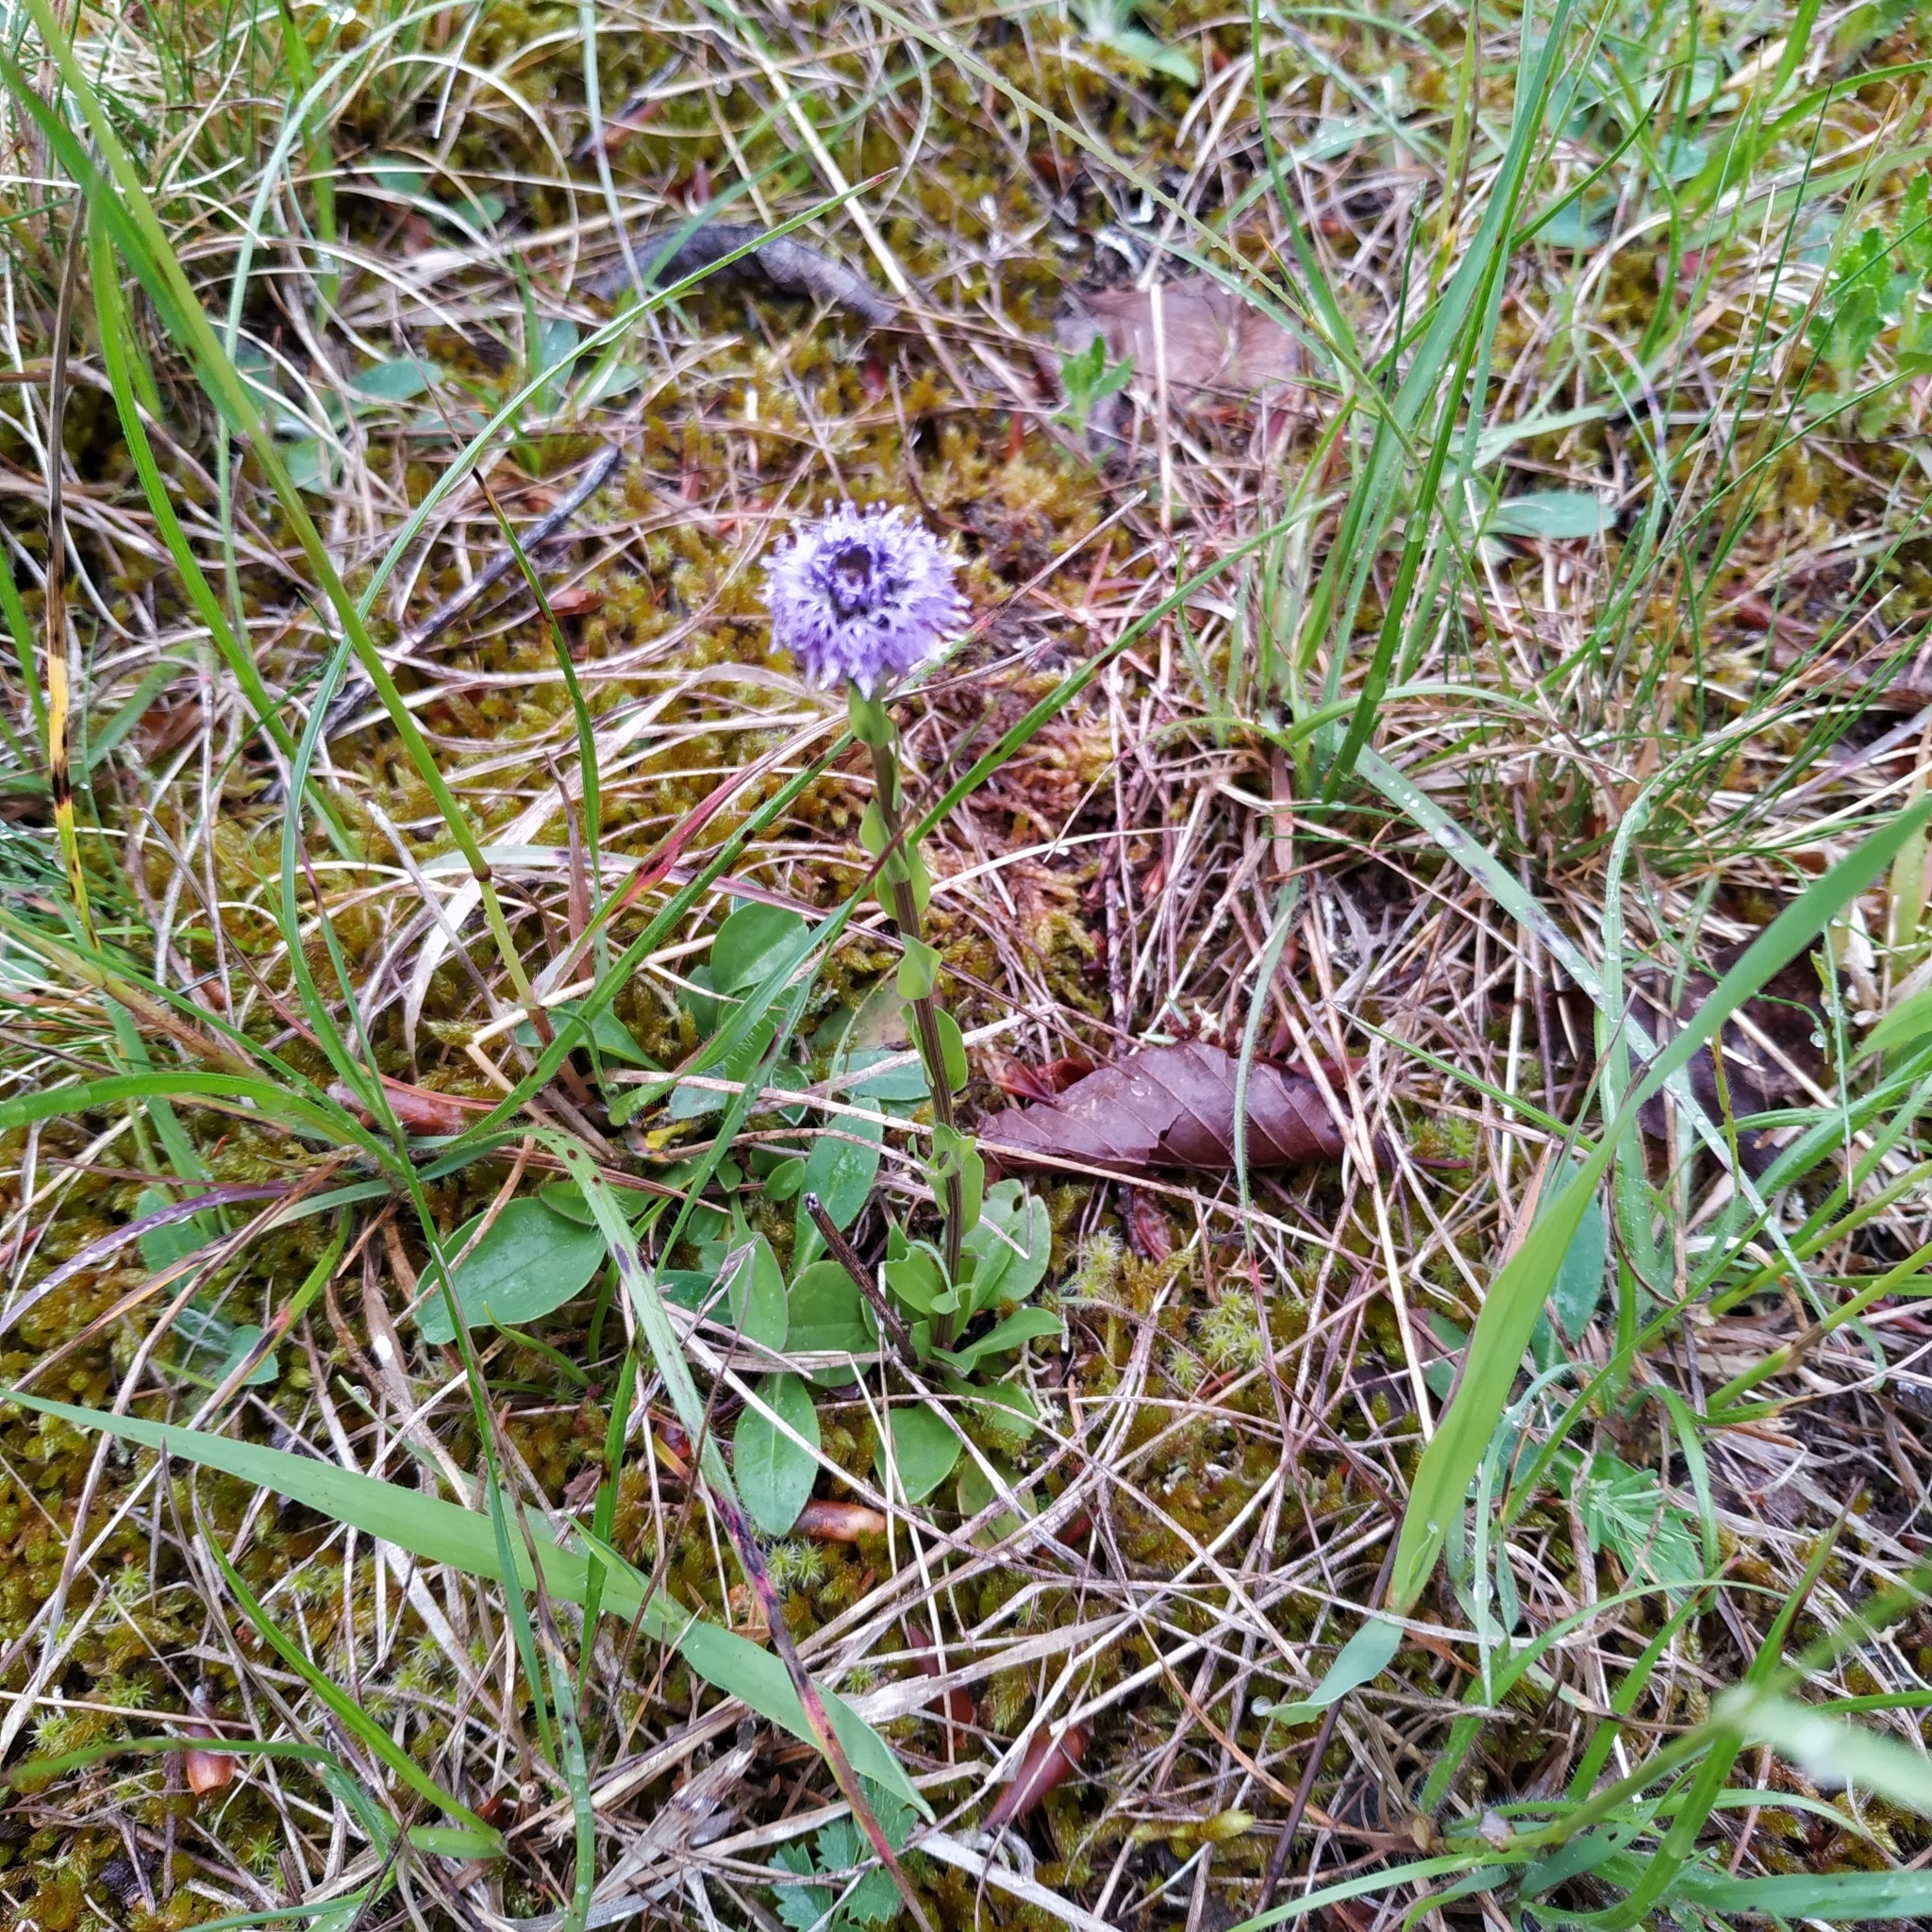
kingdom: Plantae
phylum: Tracheophyta
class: Magnoliopsida
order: Lamiales
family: Plantaginaceae
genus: Globularia
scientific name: Globularia bisnagarica
